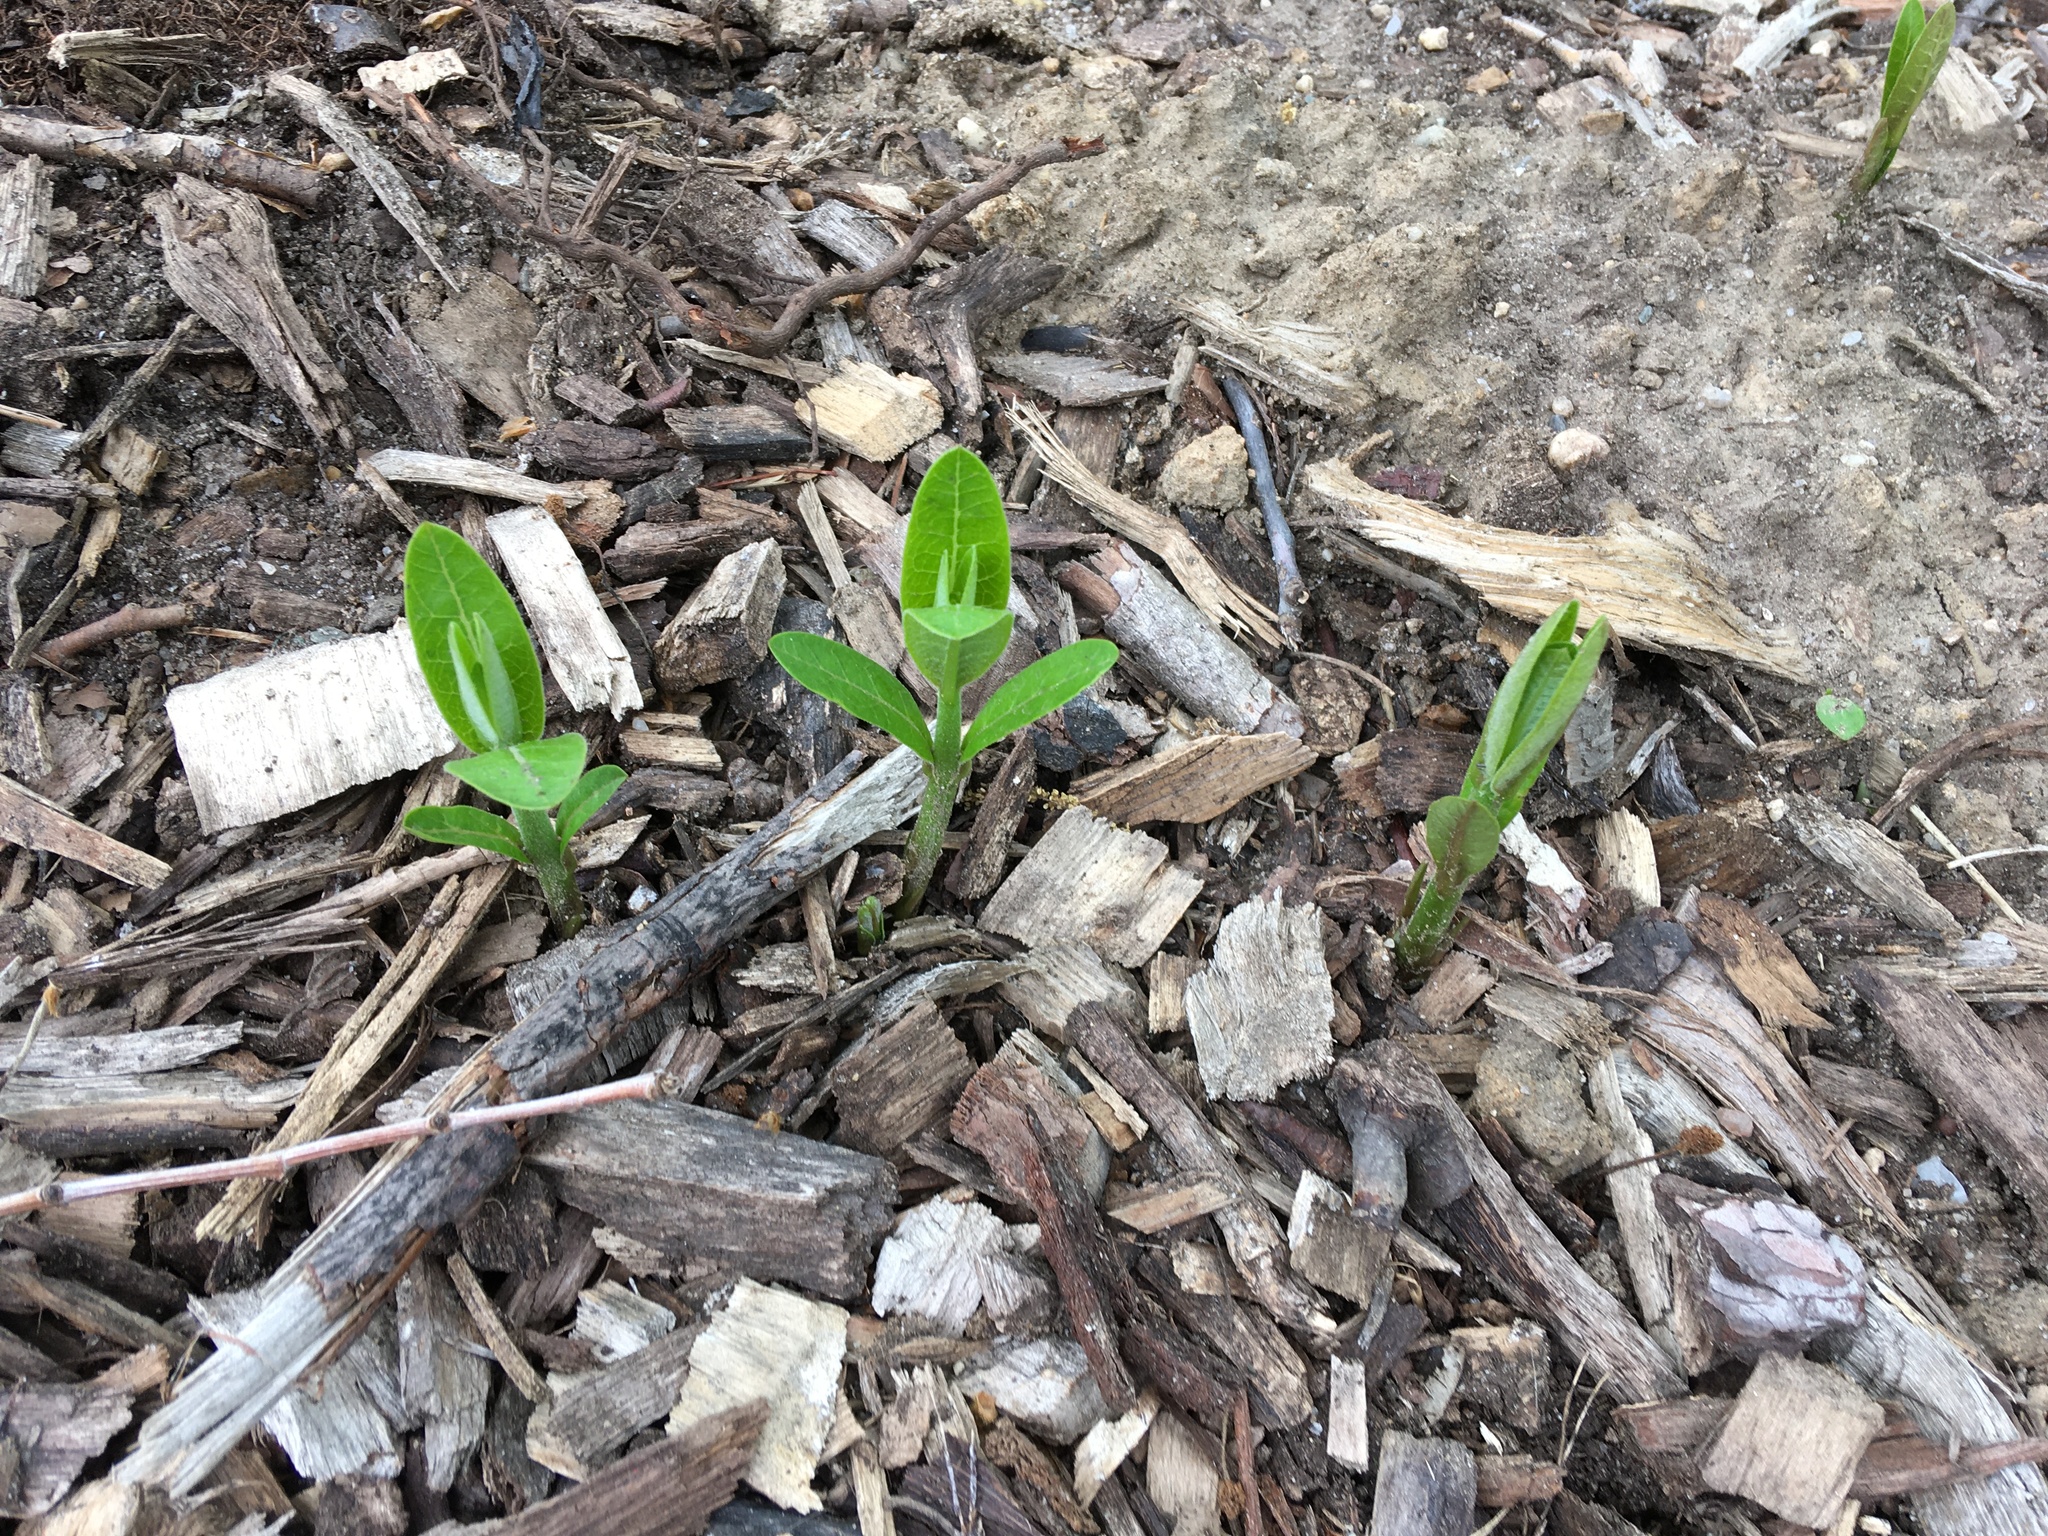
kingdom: Plantae
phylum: Tracheophyta
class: Magnoliopsida
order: Gentianales
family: Apocynaceae
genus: Asclepias
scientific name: Asclepias syriaca
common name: Common milkweed
